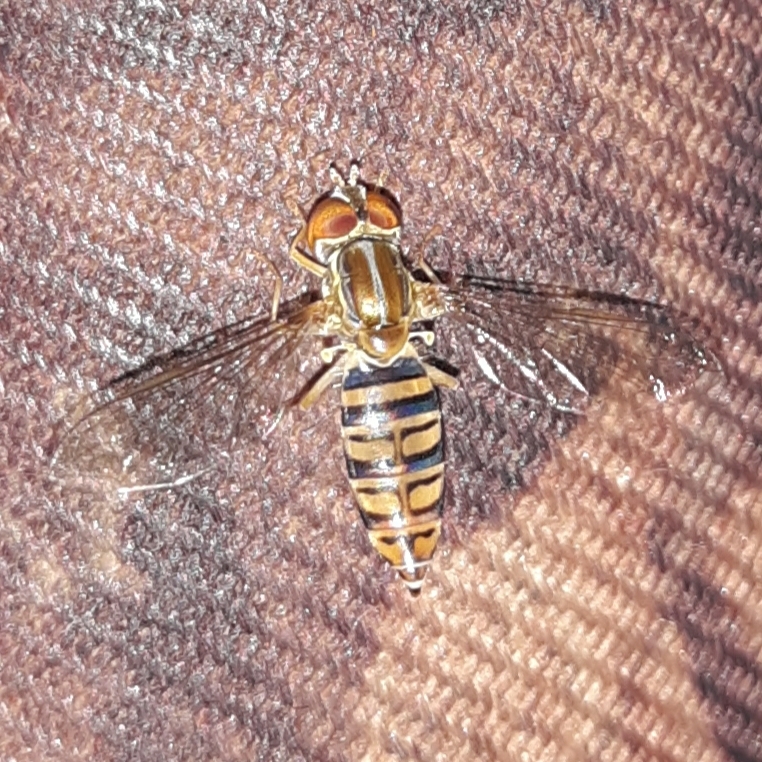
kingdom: Animalia
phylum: Arthropoda
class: Insecta
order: Diptera
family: Syrphidae
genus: Toxomerus
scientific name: Toxomerus politus
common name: Maize calligrapher
